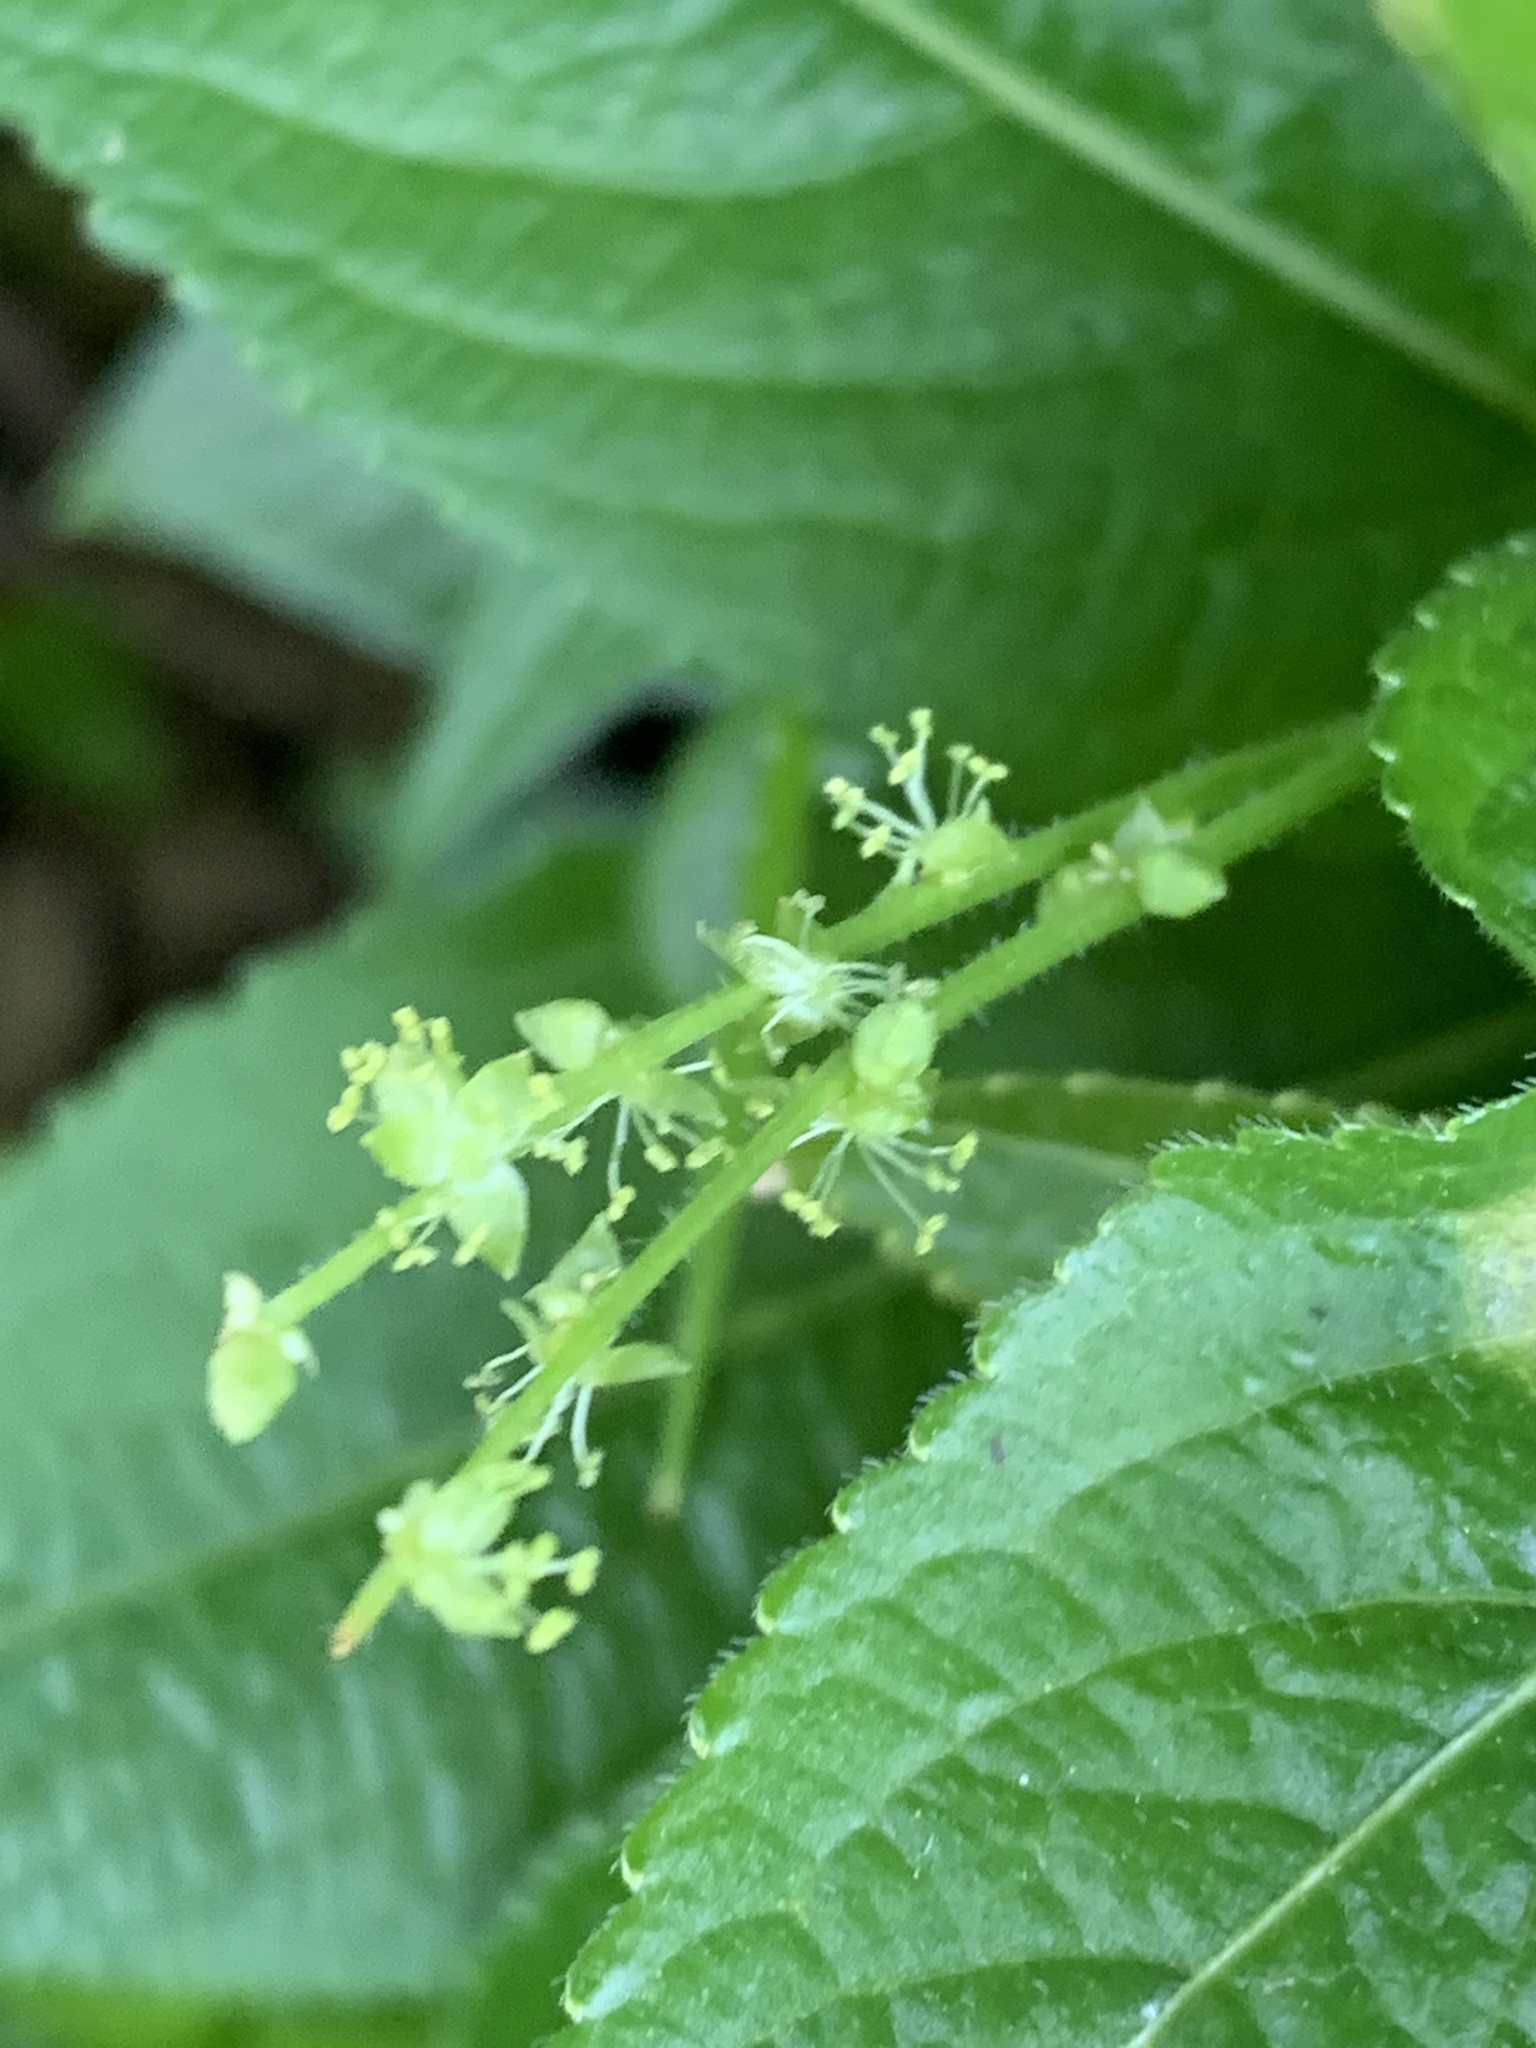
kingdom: Plantae
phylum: Tracheophyta
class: Magnoliopsida
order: Malpighiales
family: Euphorbiaceae
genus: Mercurialis
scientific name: Mercurialis perennis
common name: Dog mercury
